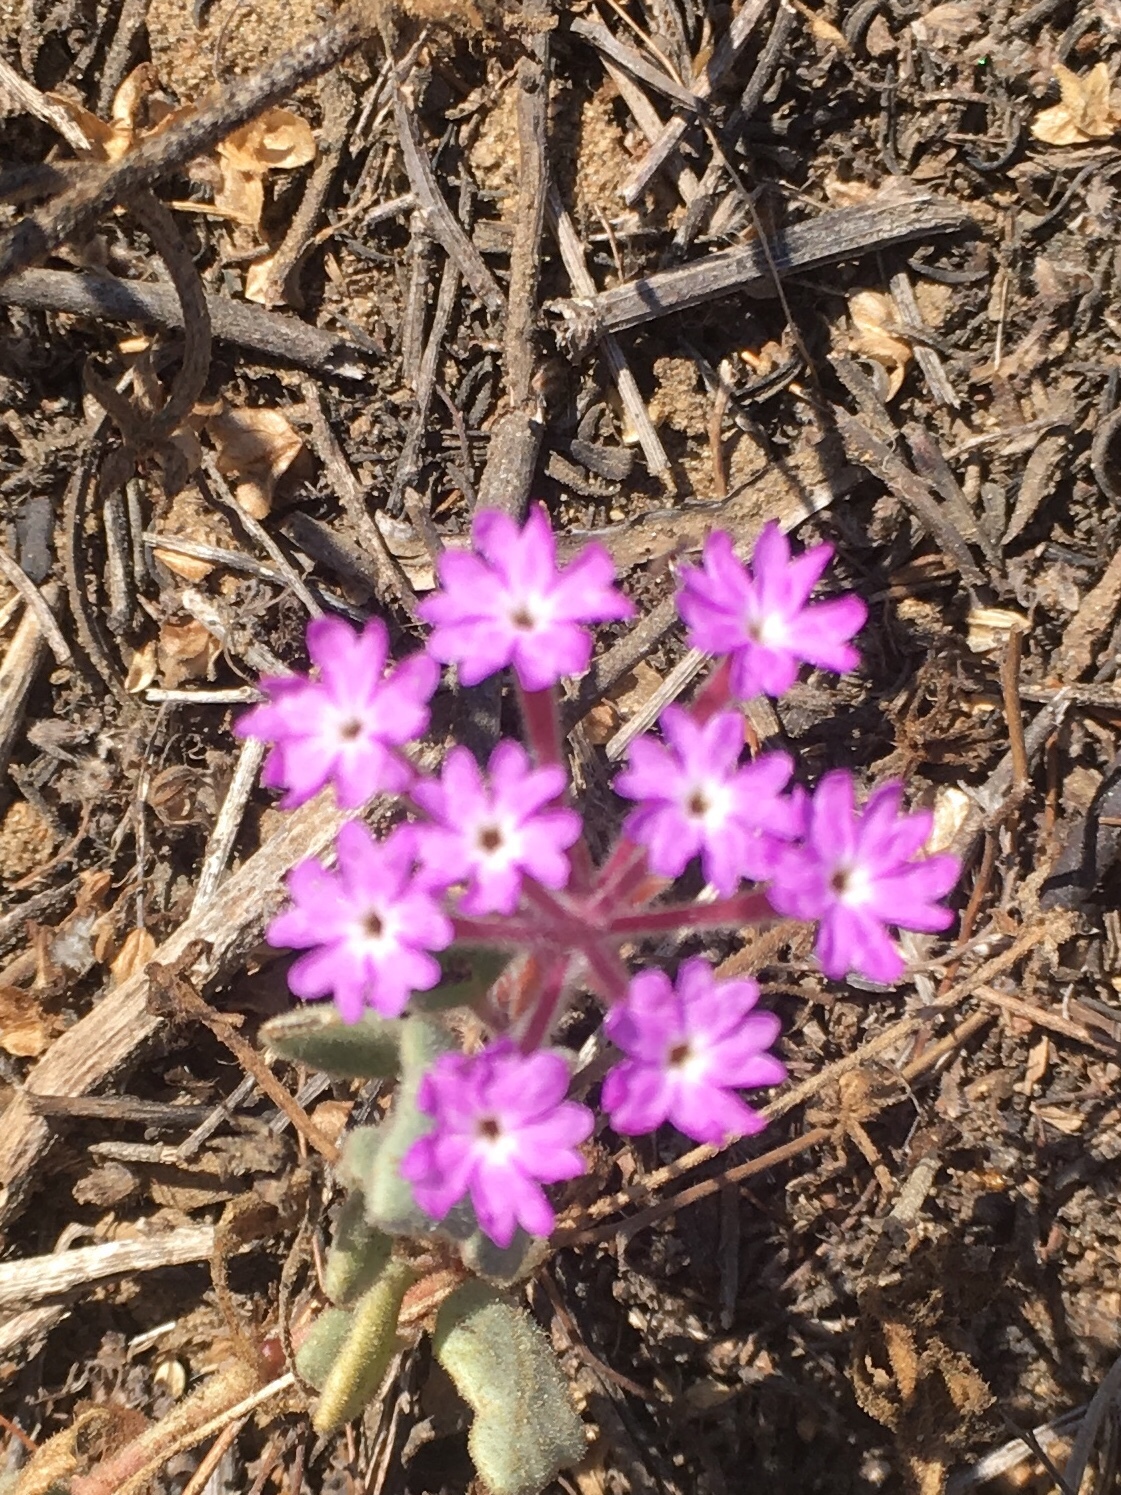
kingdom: Plantae
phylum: Tracheophyta
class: Magnoliopsida
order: Caryophyllales
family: Nyctaginaceae
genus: Abronia
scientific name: Abronia umbellata
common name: Sand-verbena
